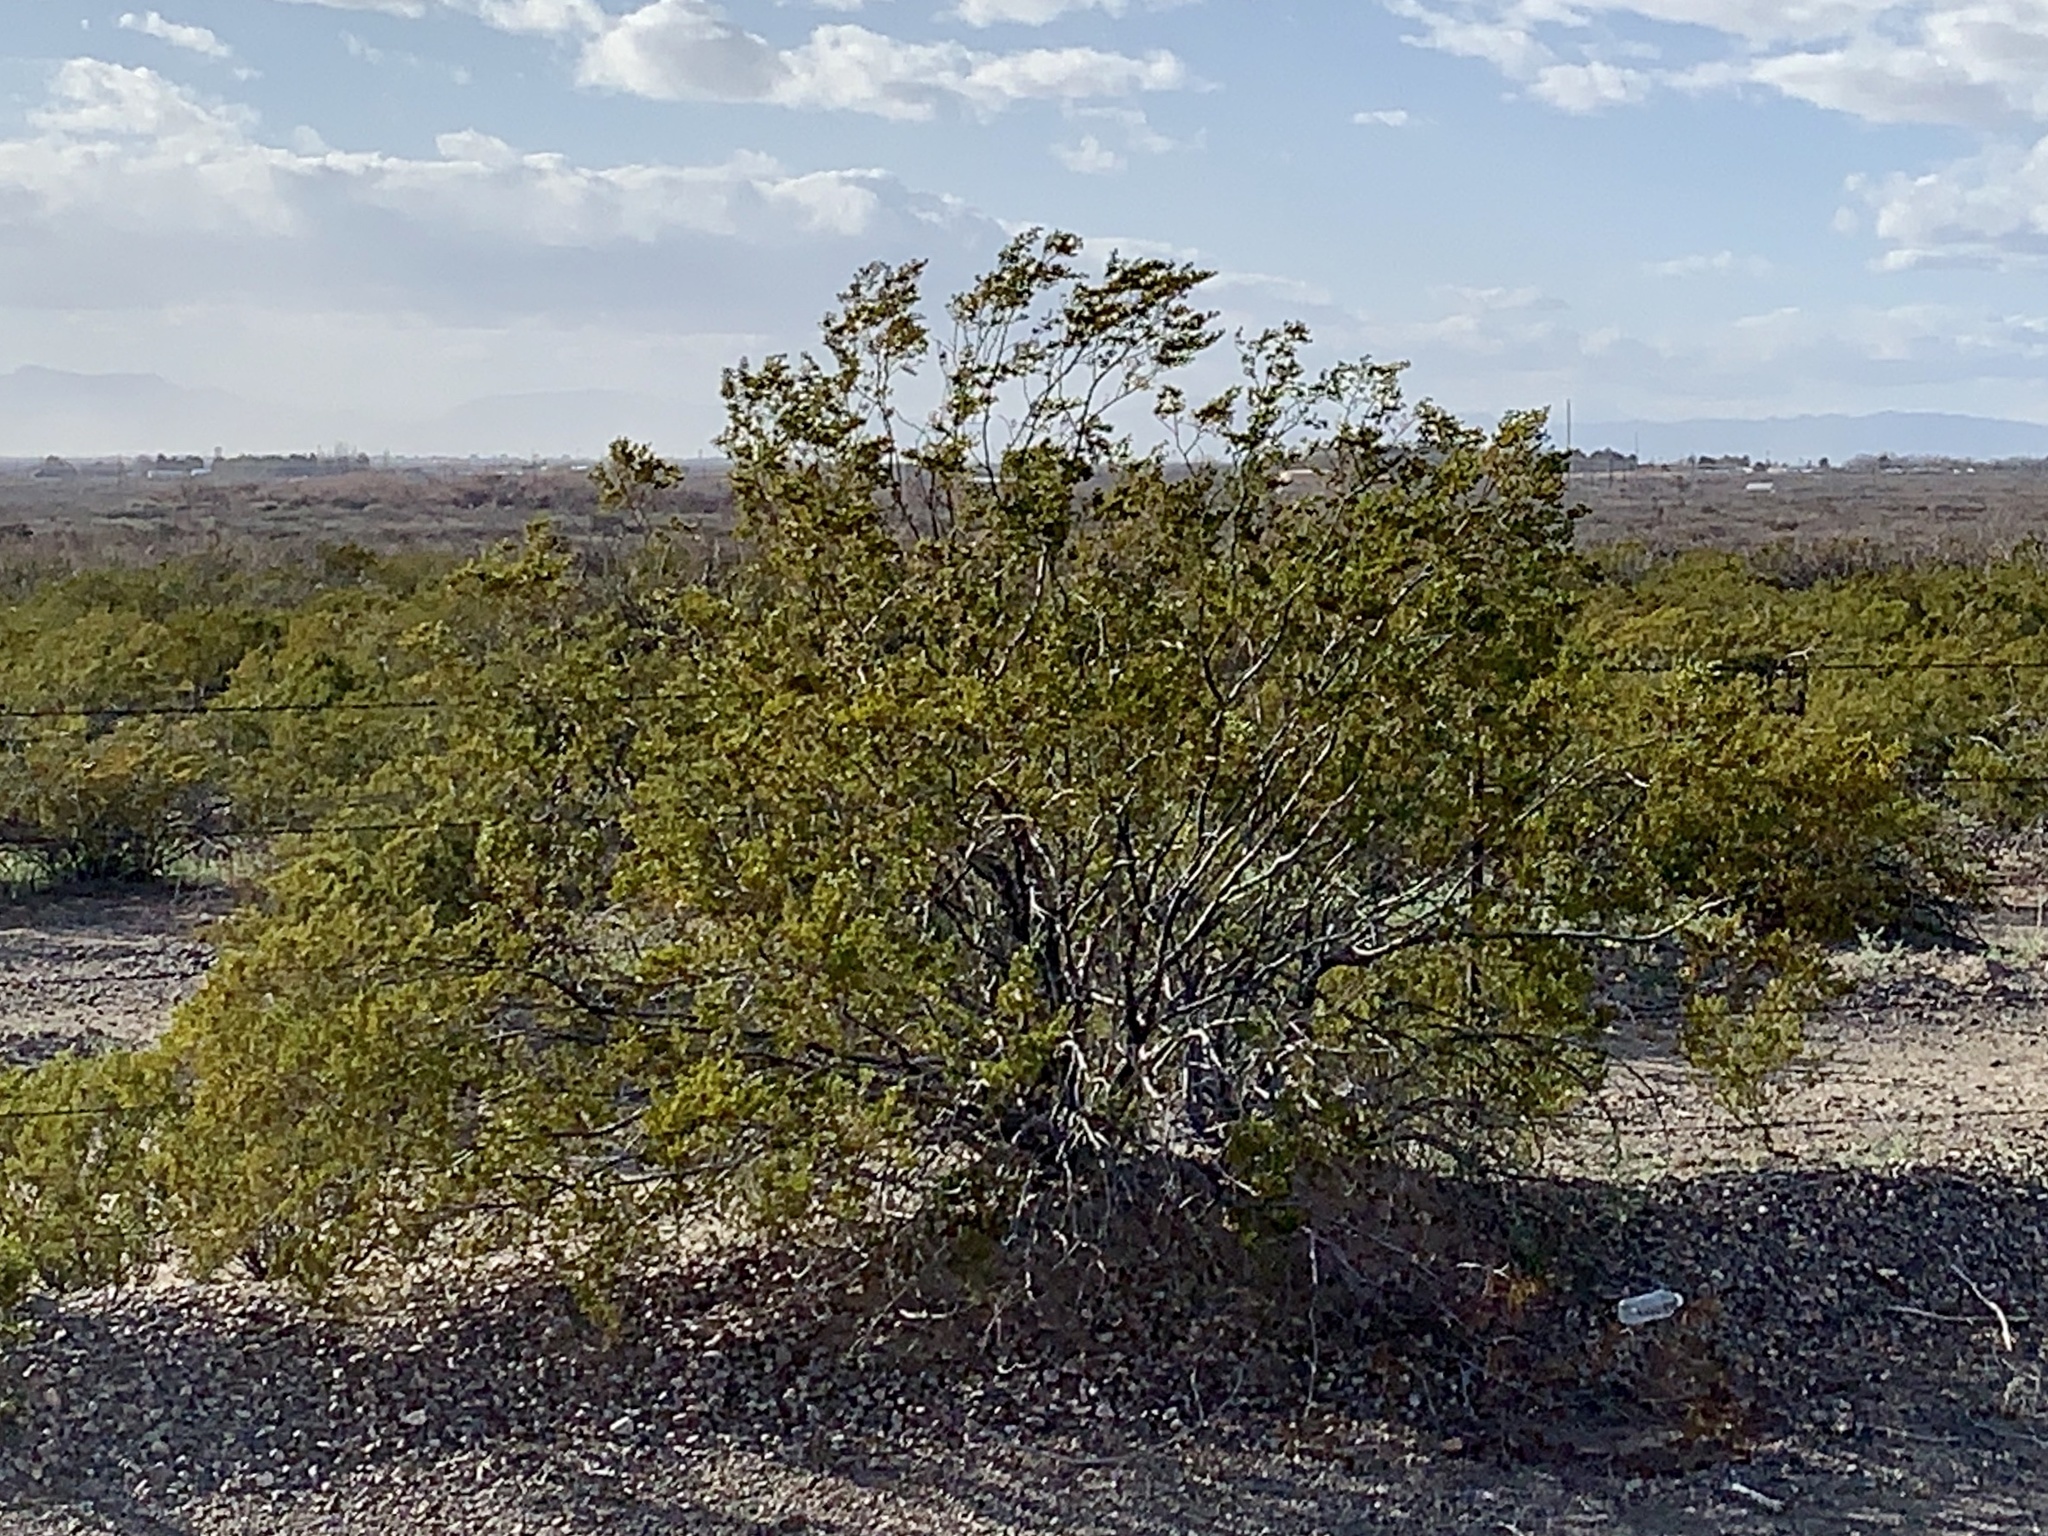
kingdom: Plantae
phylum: Tracheophyta
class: Magnoliopsida
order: Zygophyllales
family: Zygophyllaceae
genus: Larrea
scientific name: Larrea tridentata
